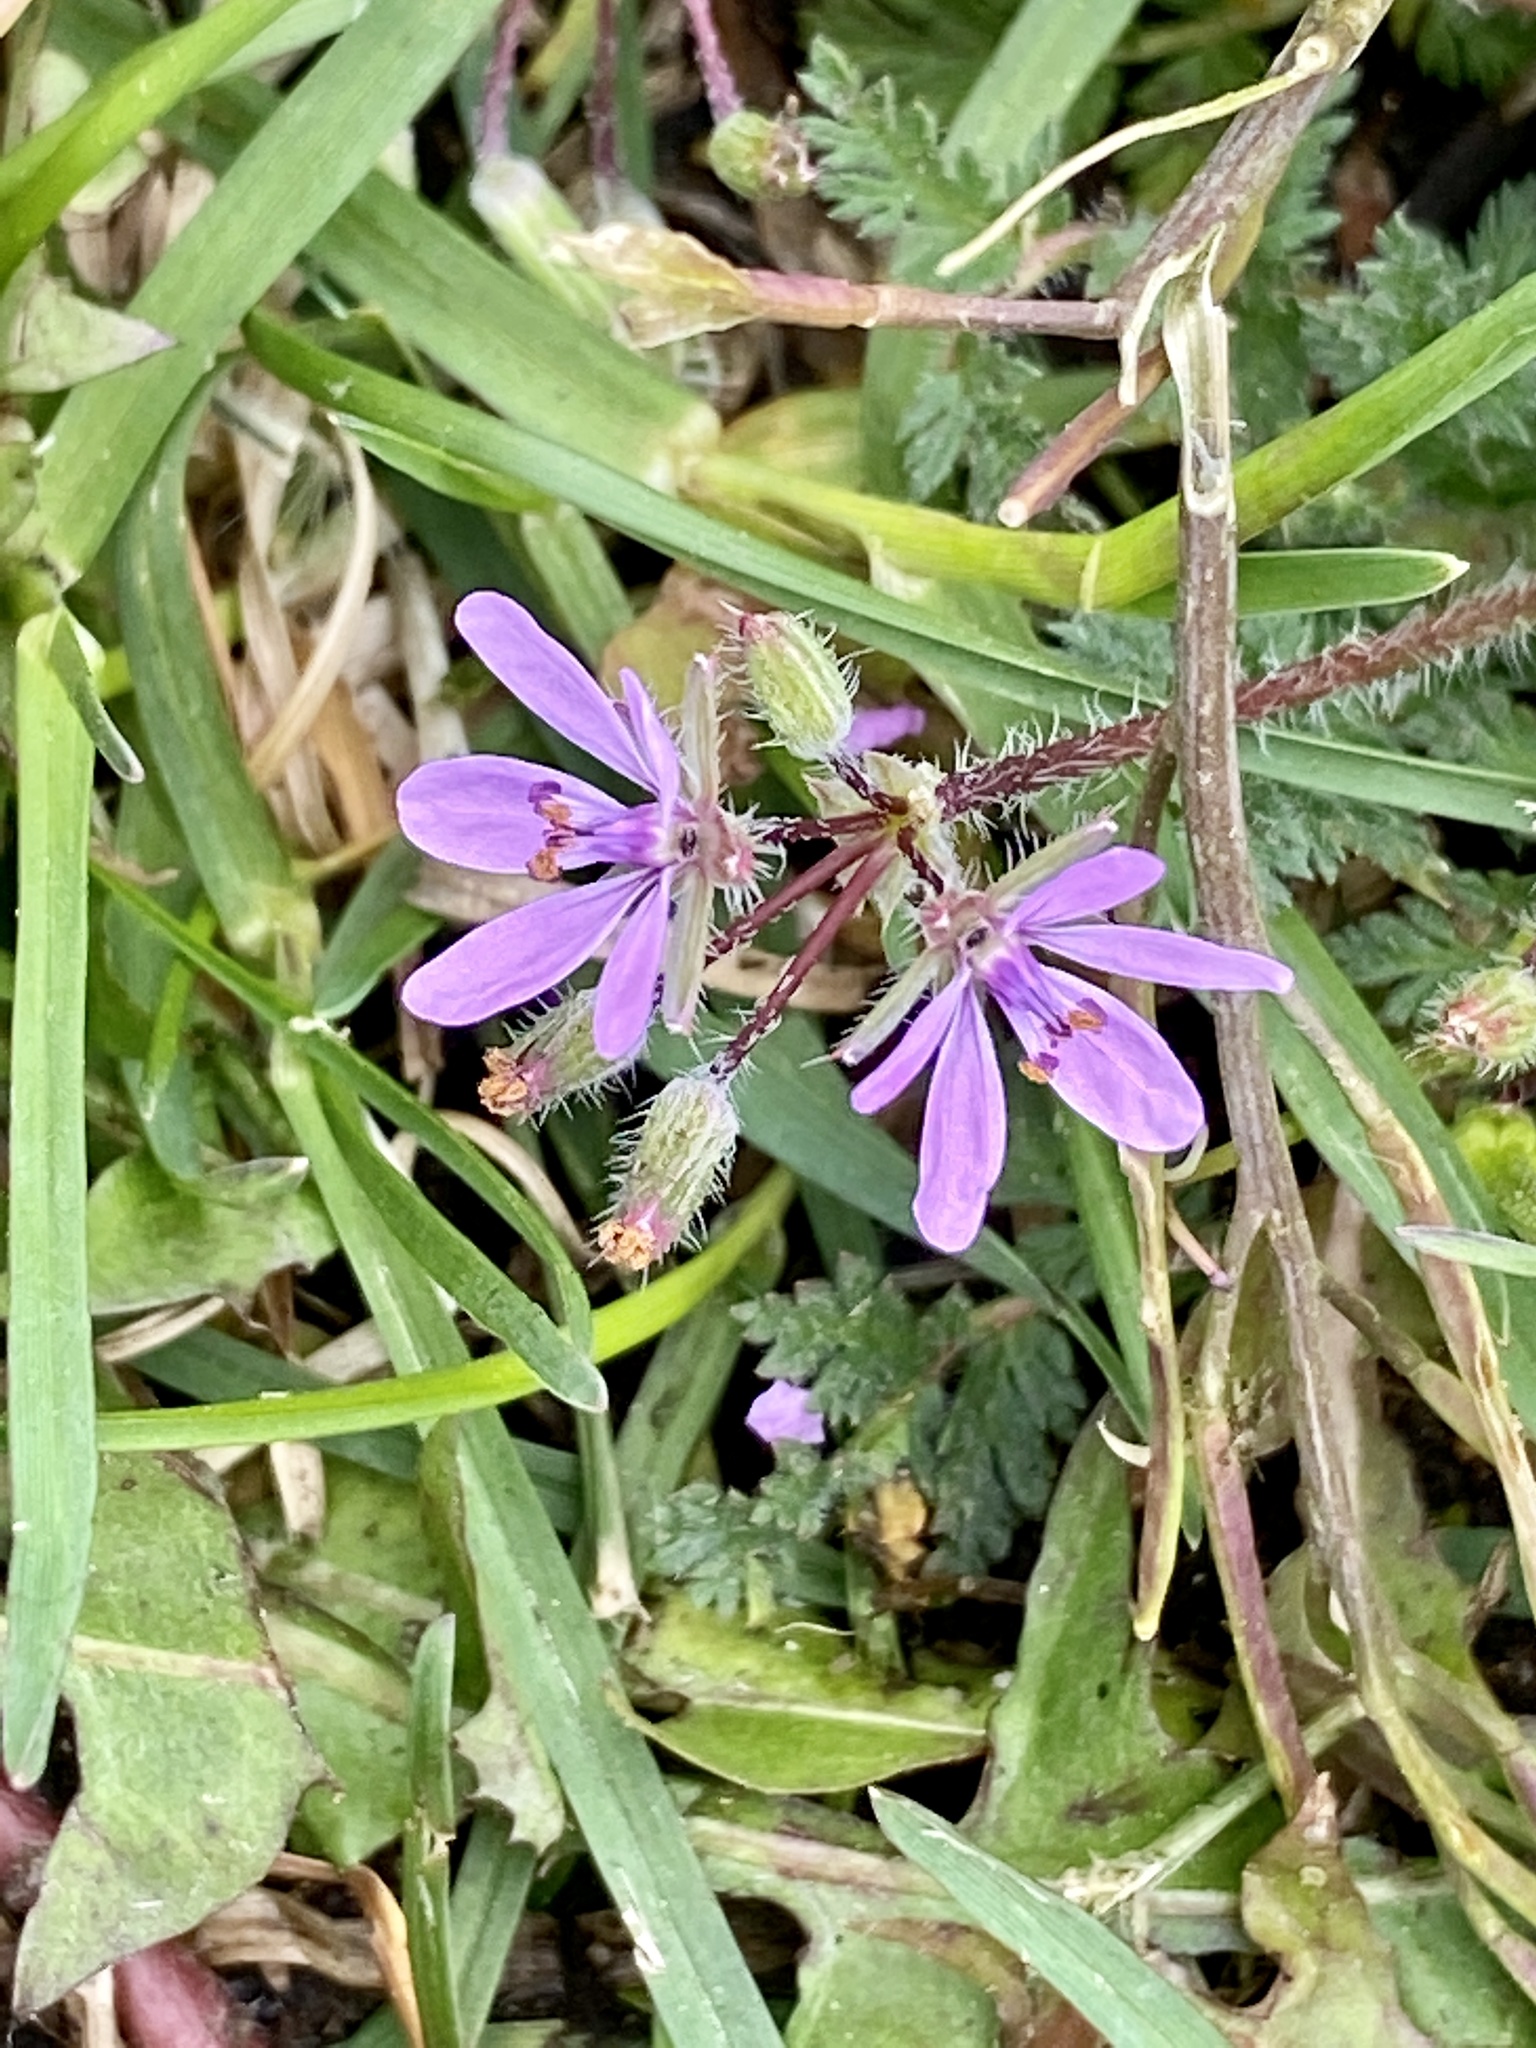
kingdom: Plantae
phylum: Tracheophyta
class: Magnoliopsida
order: Geraniales
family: Geraniaceae
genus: Erodium
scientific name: Erodium cicutarium
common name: Common stork's-bill
